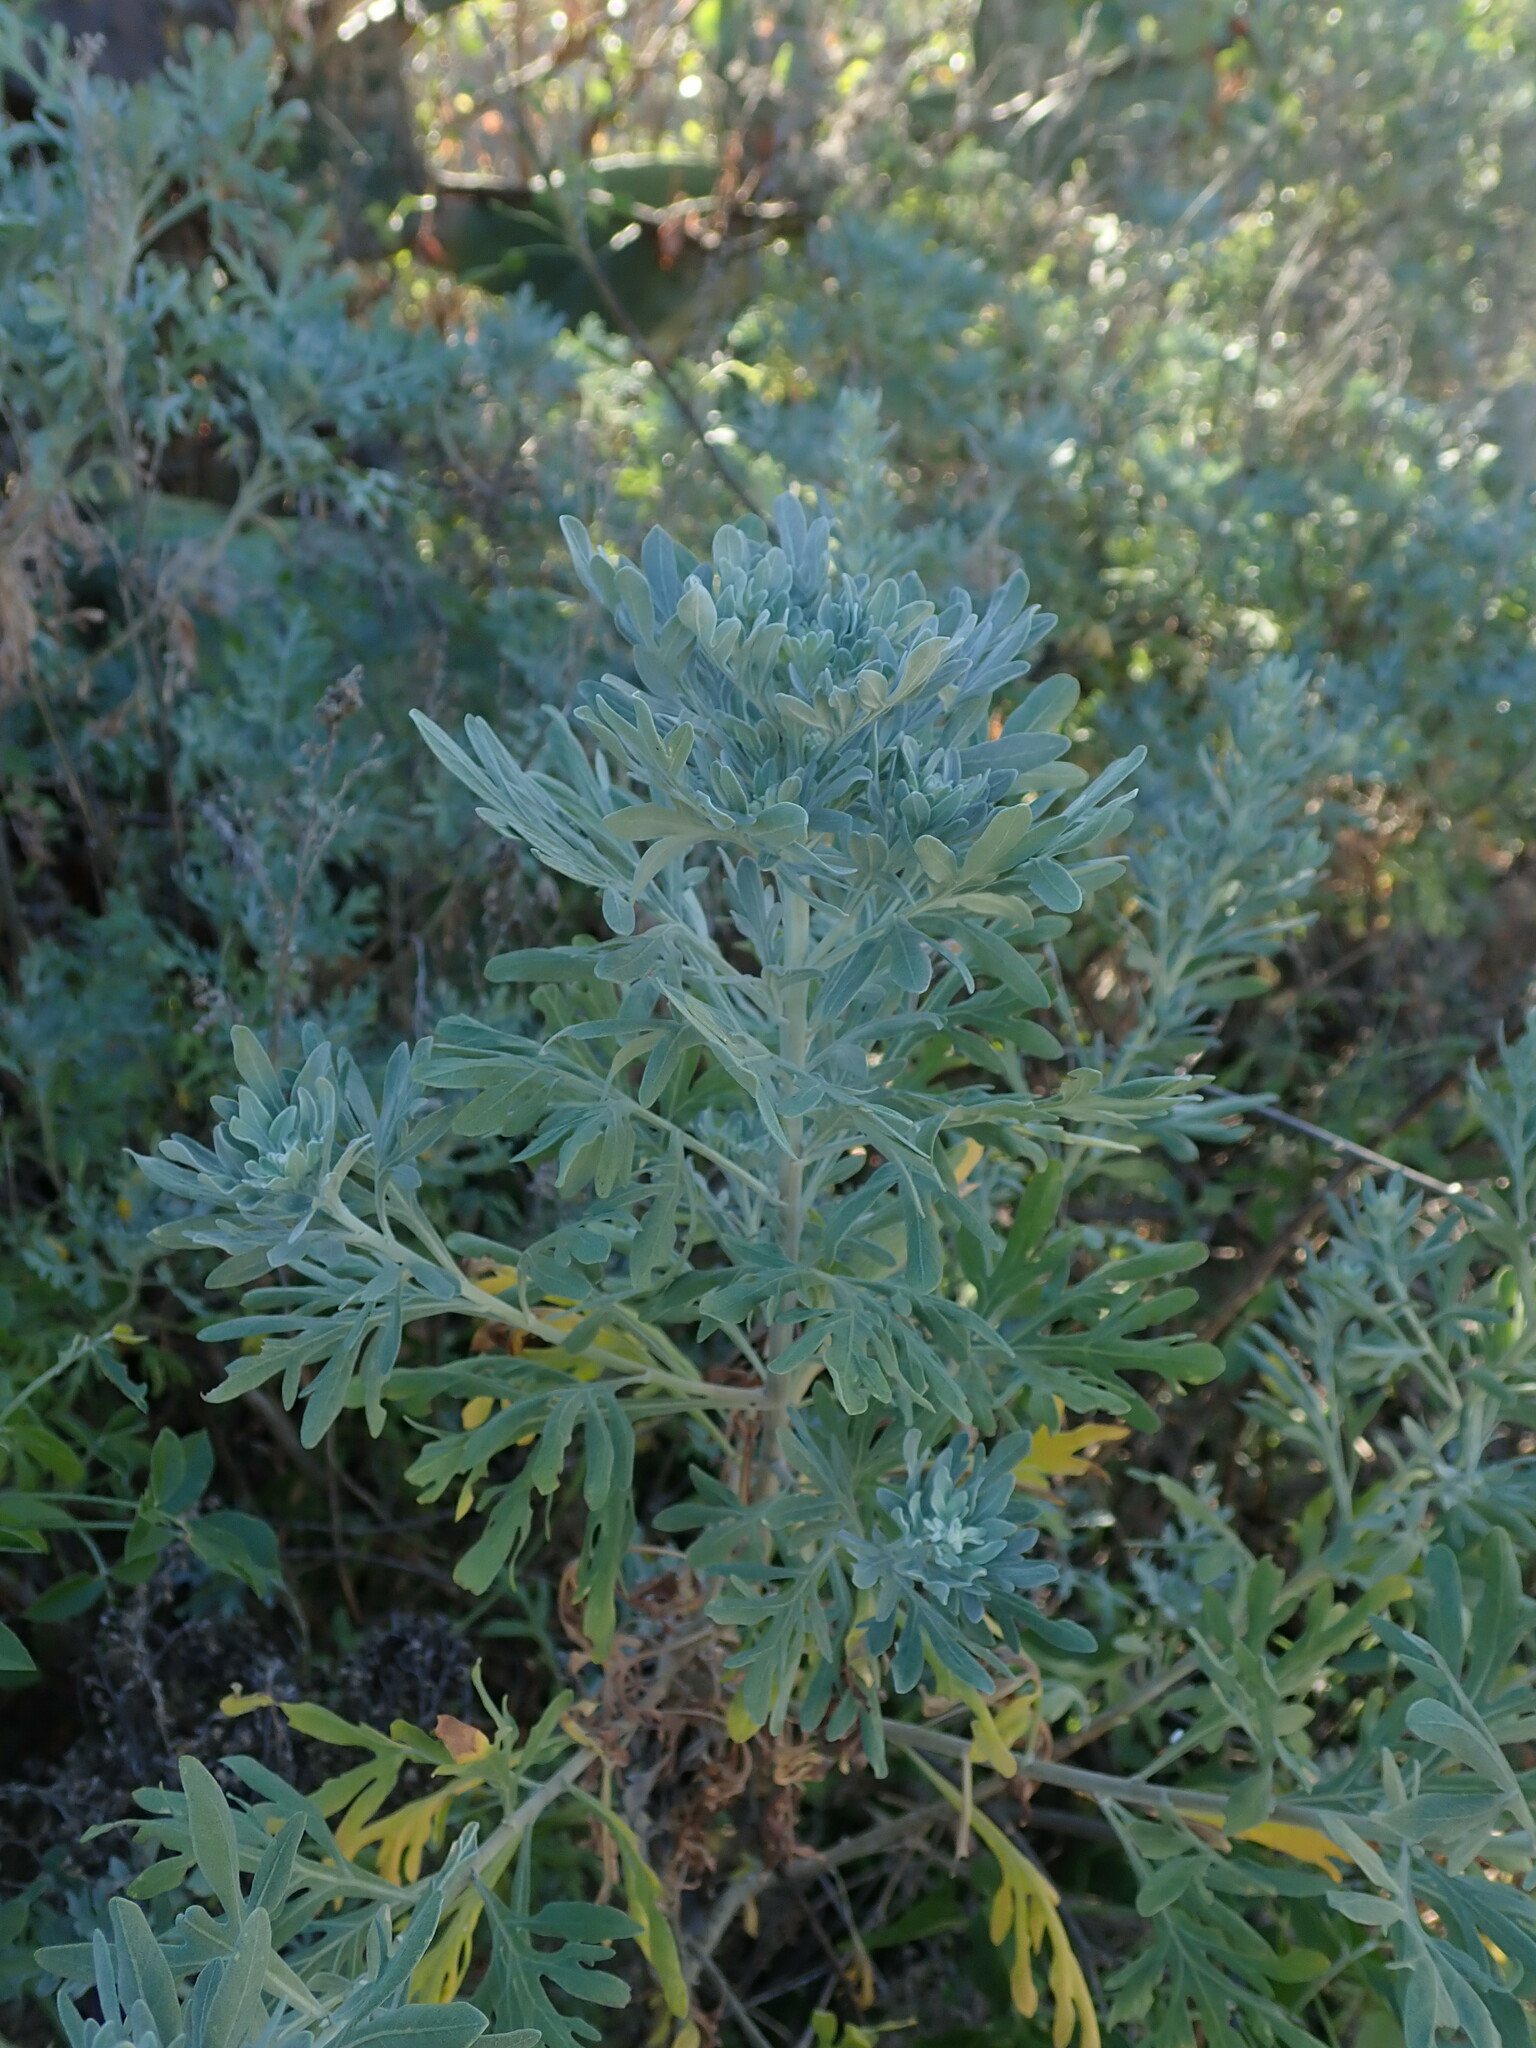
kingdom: Plantae
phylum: Tracheophyta
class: Magnoliopsida
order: Asterales
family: Asteraceae
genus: Artemisia
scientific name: Artemisia thuscula
